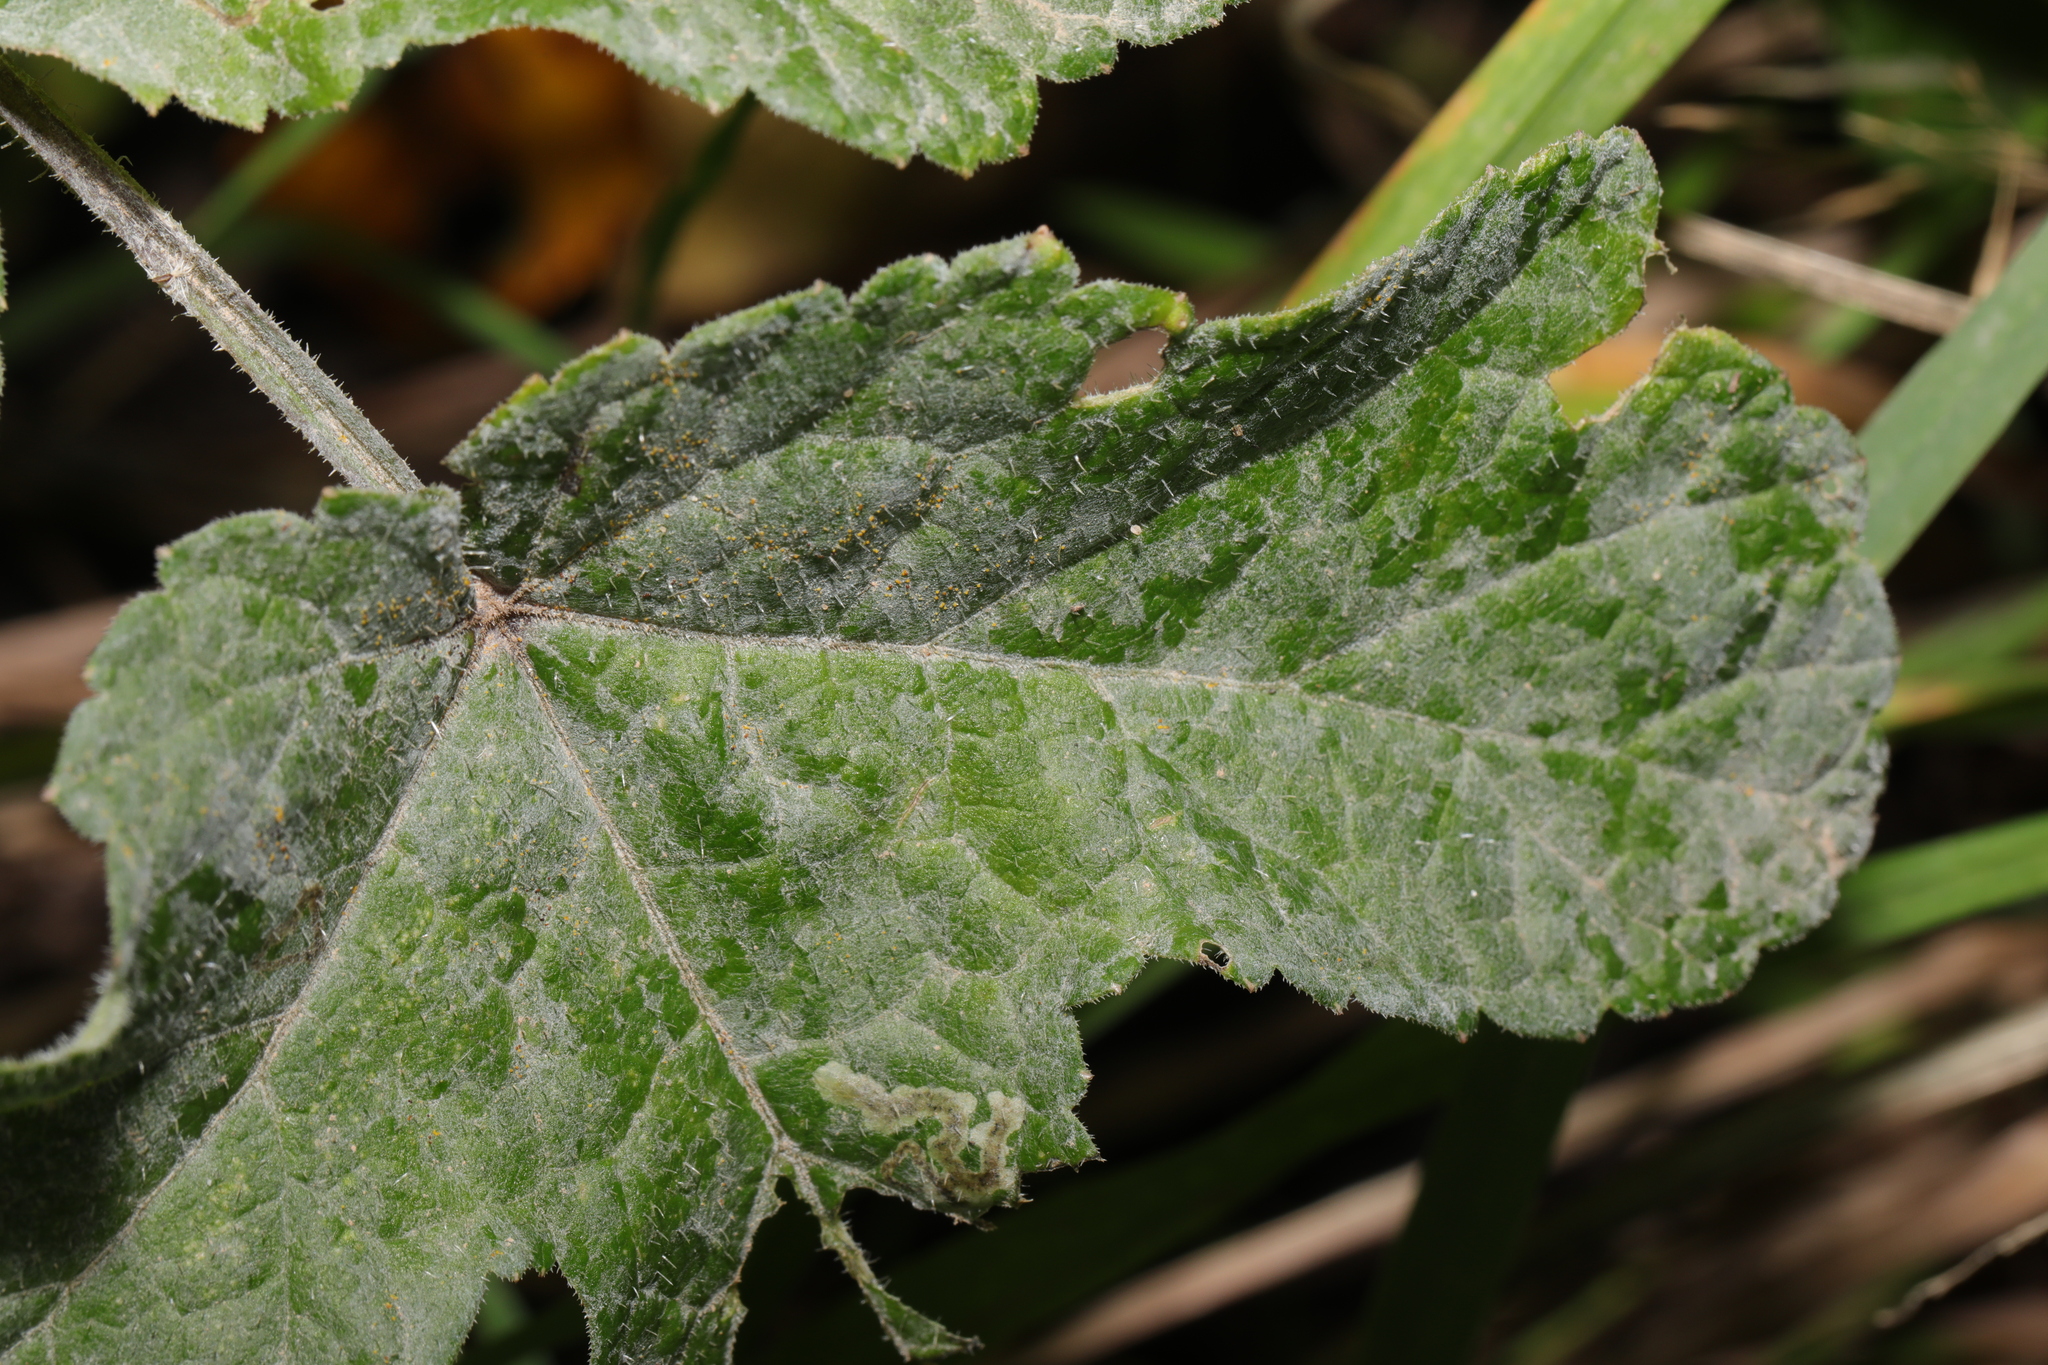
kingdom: Fungi
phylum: Ascomycota
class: Leotiomycetes
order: Helotiales
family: Erysiphaceae
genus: Erysiphe
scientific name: Erysiphe heraclei
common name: Umbellifer mildew
